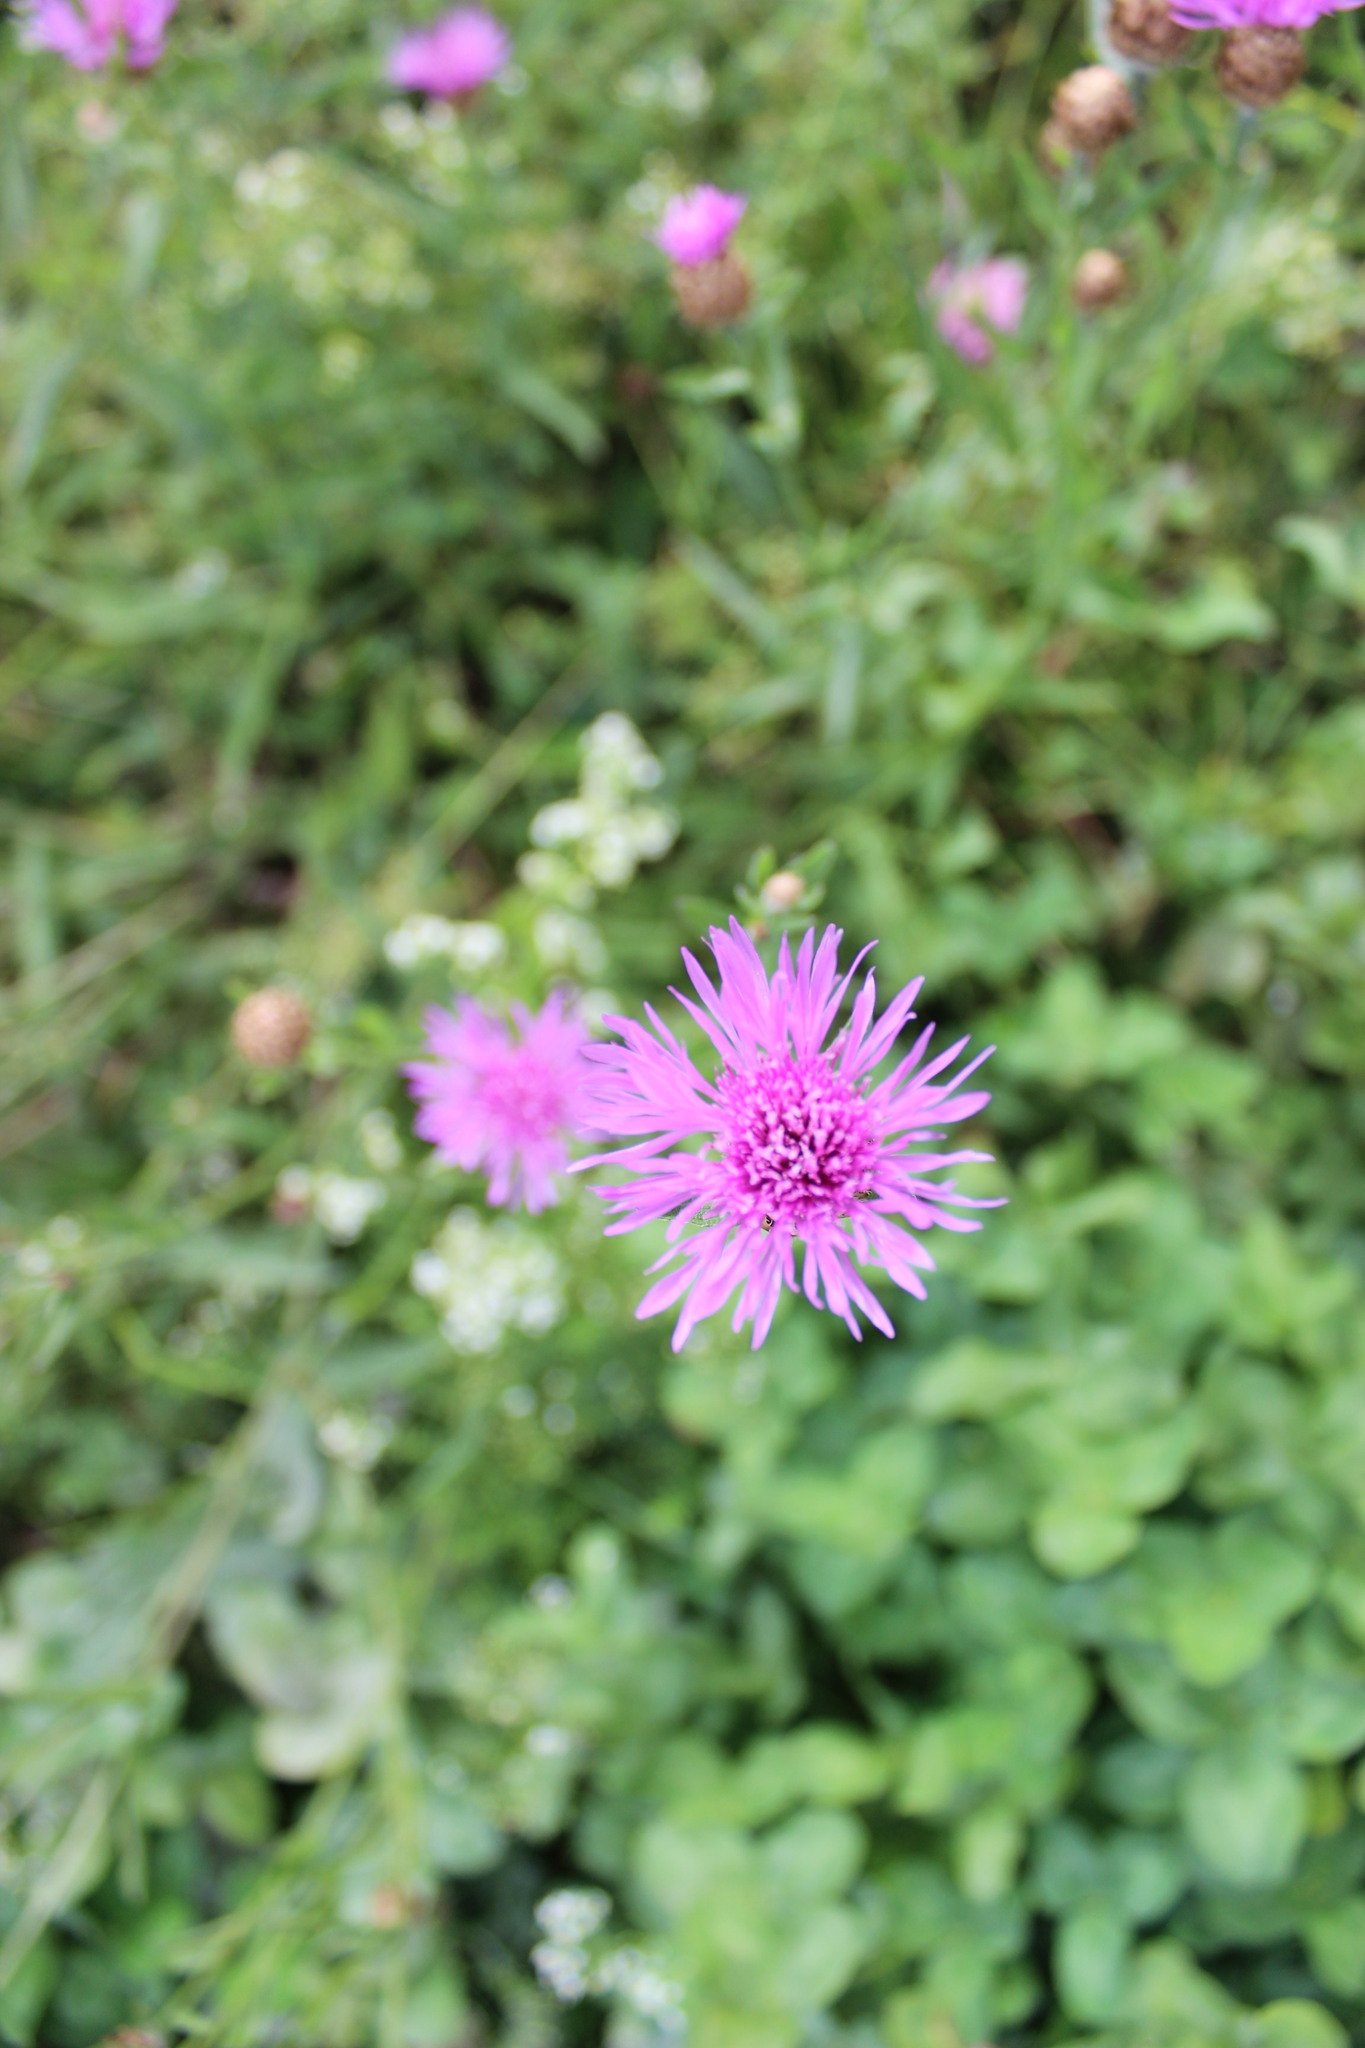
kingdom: Plantae
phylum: Tracheophyta
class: Magnoliopsida
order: Asterales
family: Asteraceae
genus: Centaurea
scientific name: Centaurea jacea
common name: Brown knapweed
